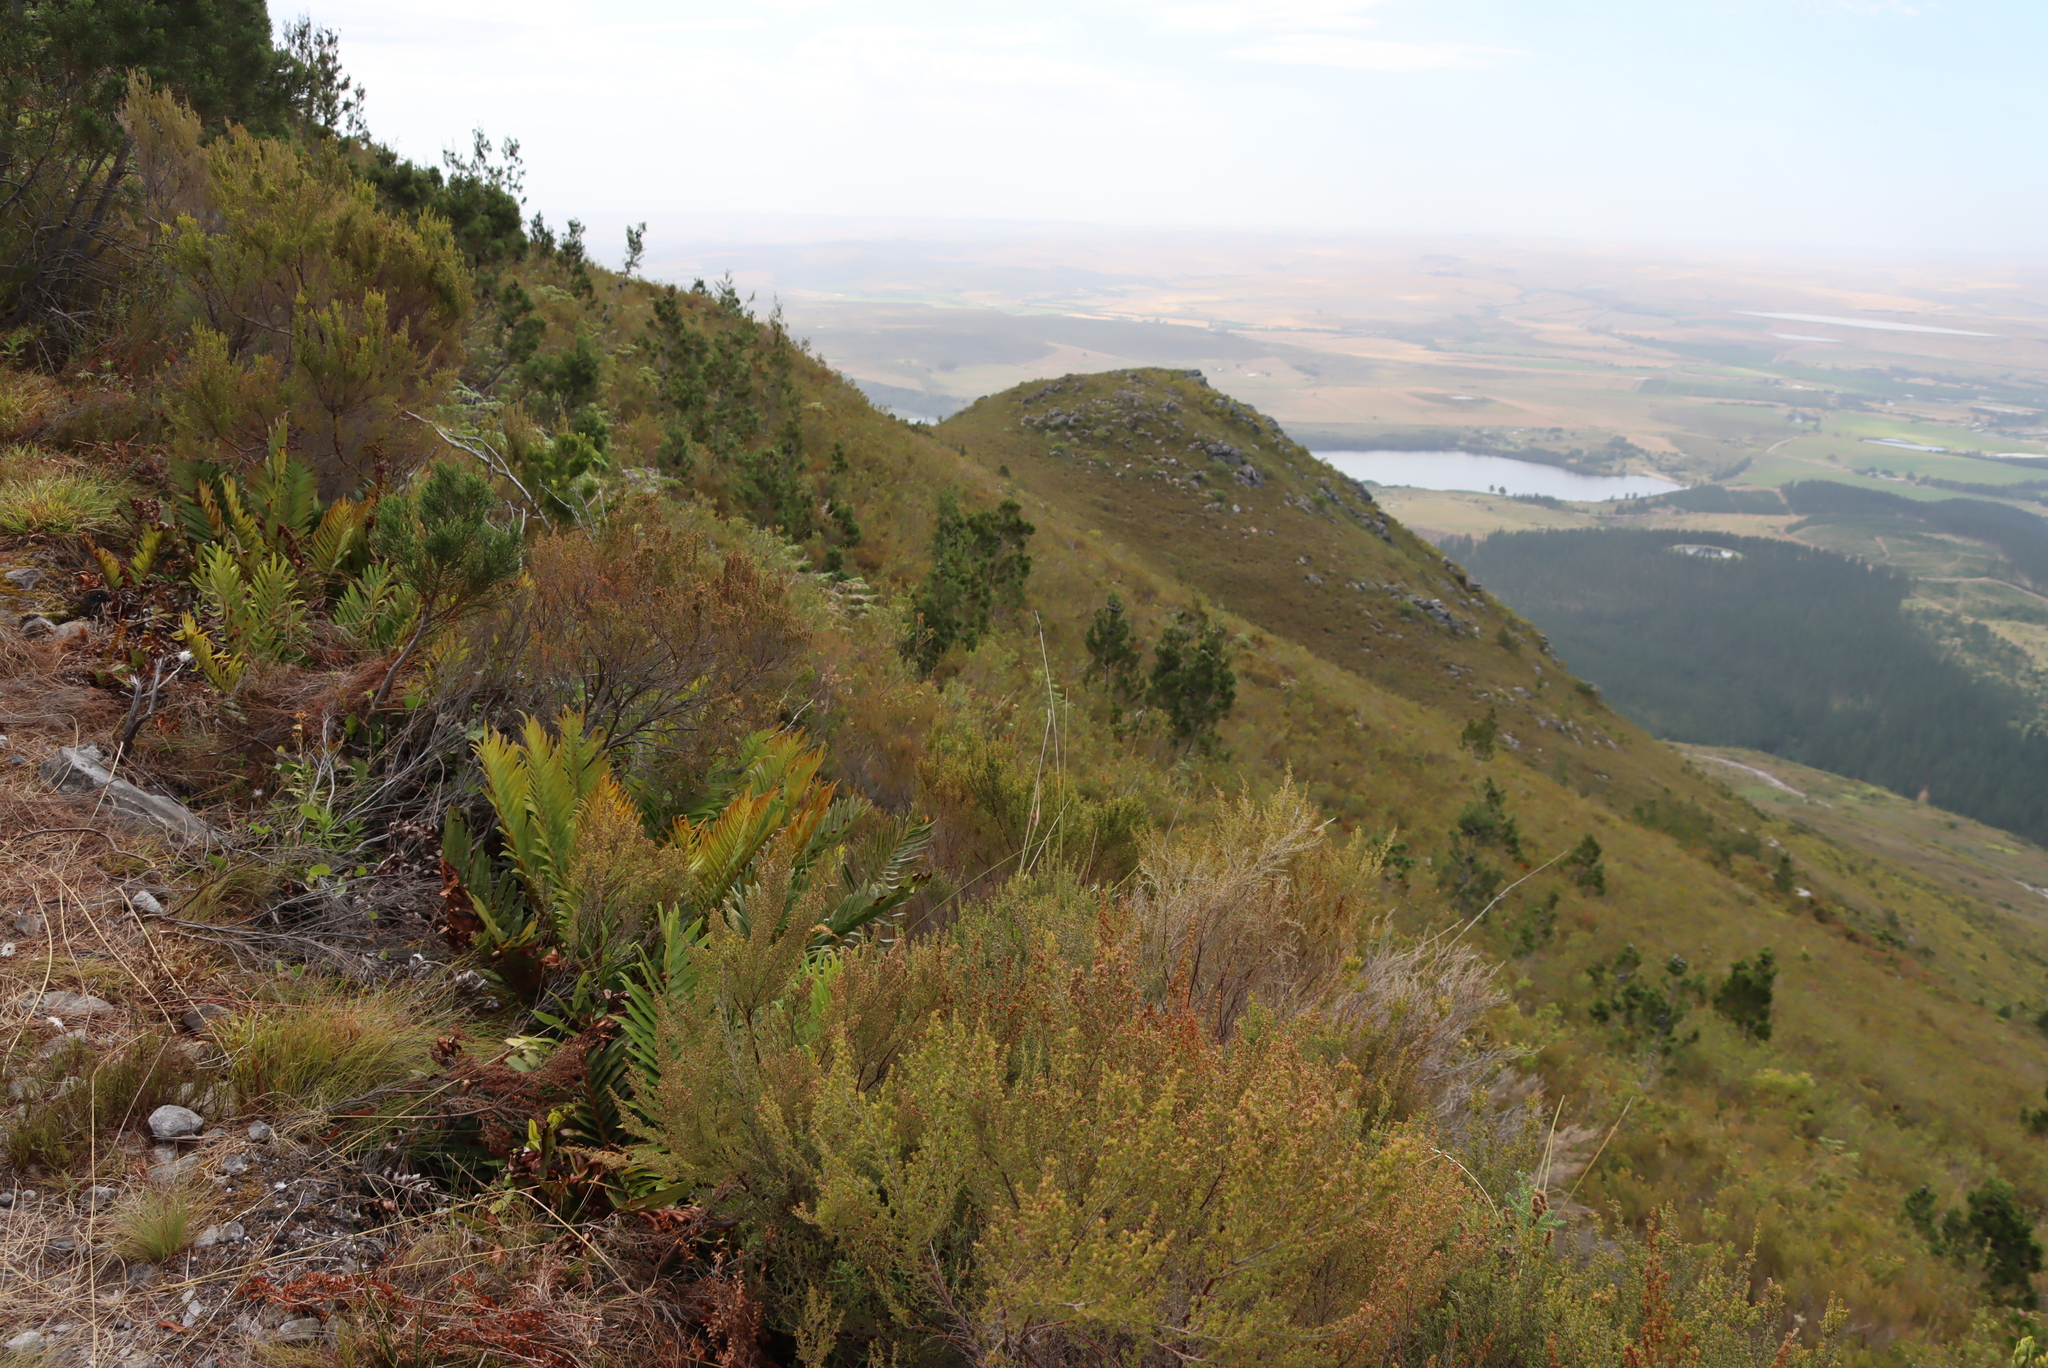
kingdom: Plantae
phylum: Tracheophyta
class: Pinopsida
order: Pinales
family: Cupressaceae
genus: Widdringtonia
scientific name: Widdringtonia nodiflora
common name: Cape cypress
